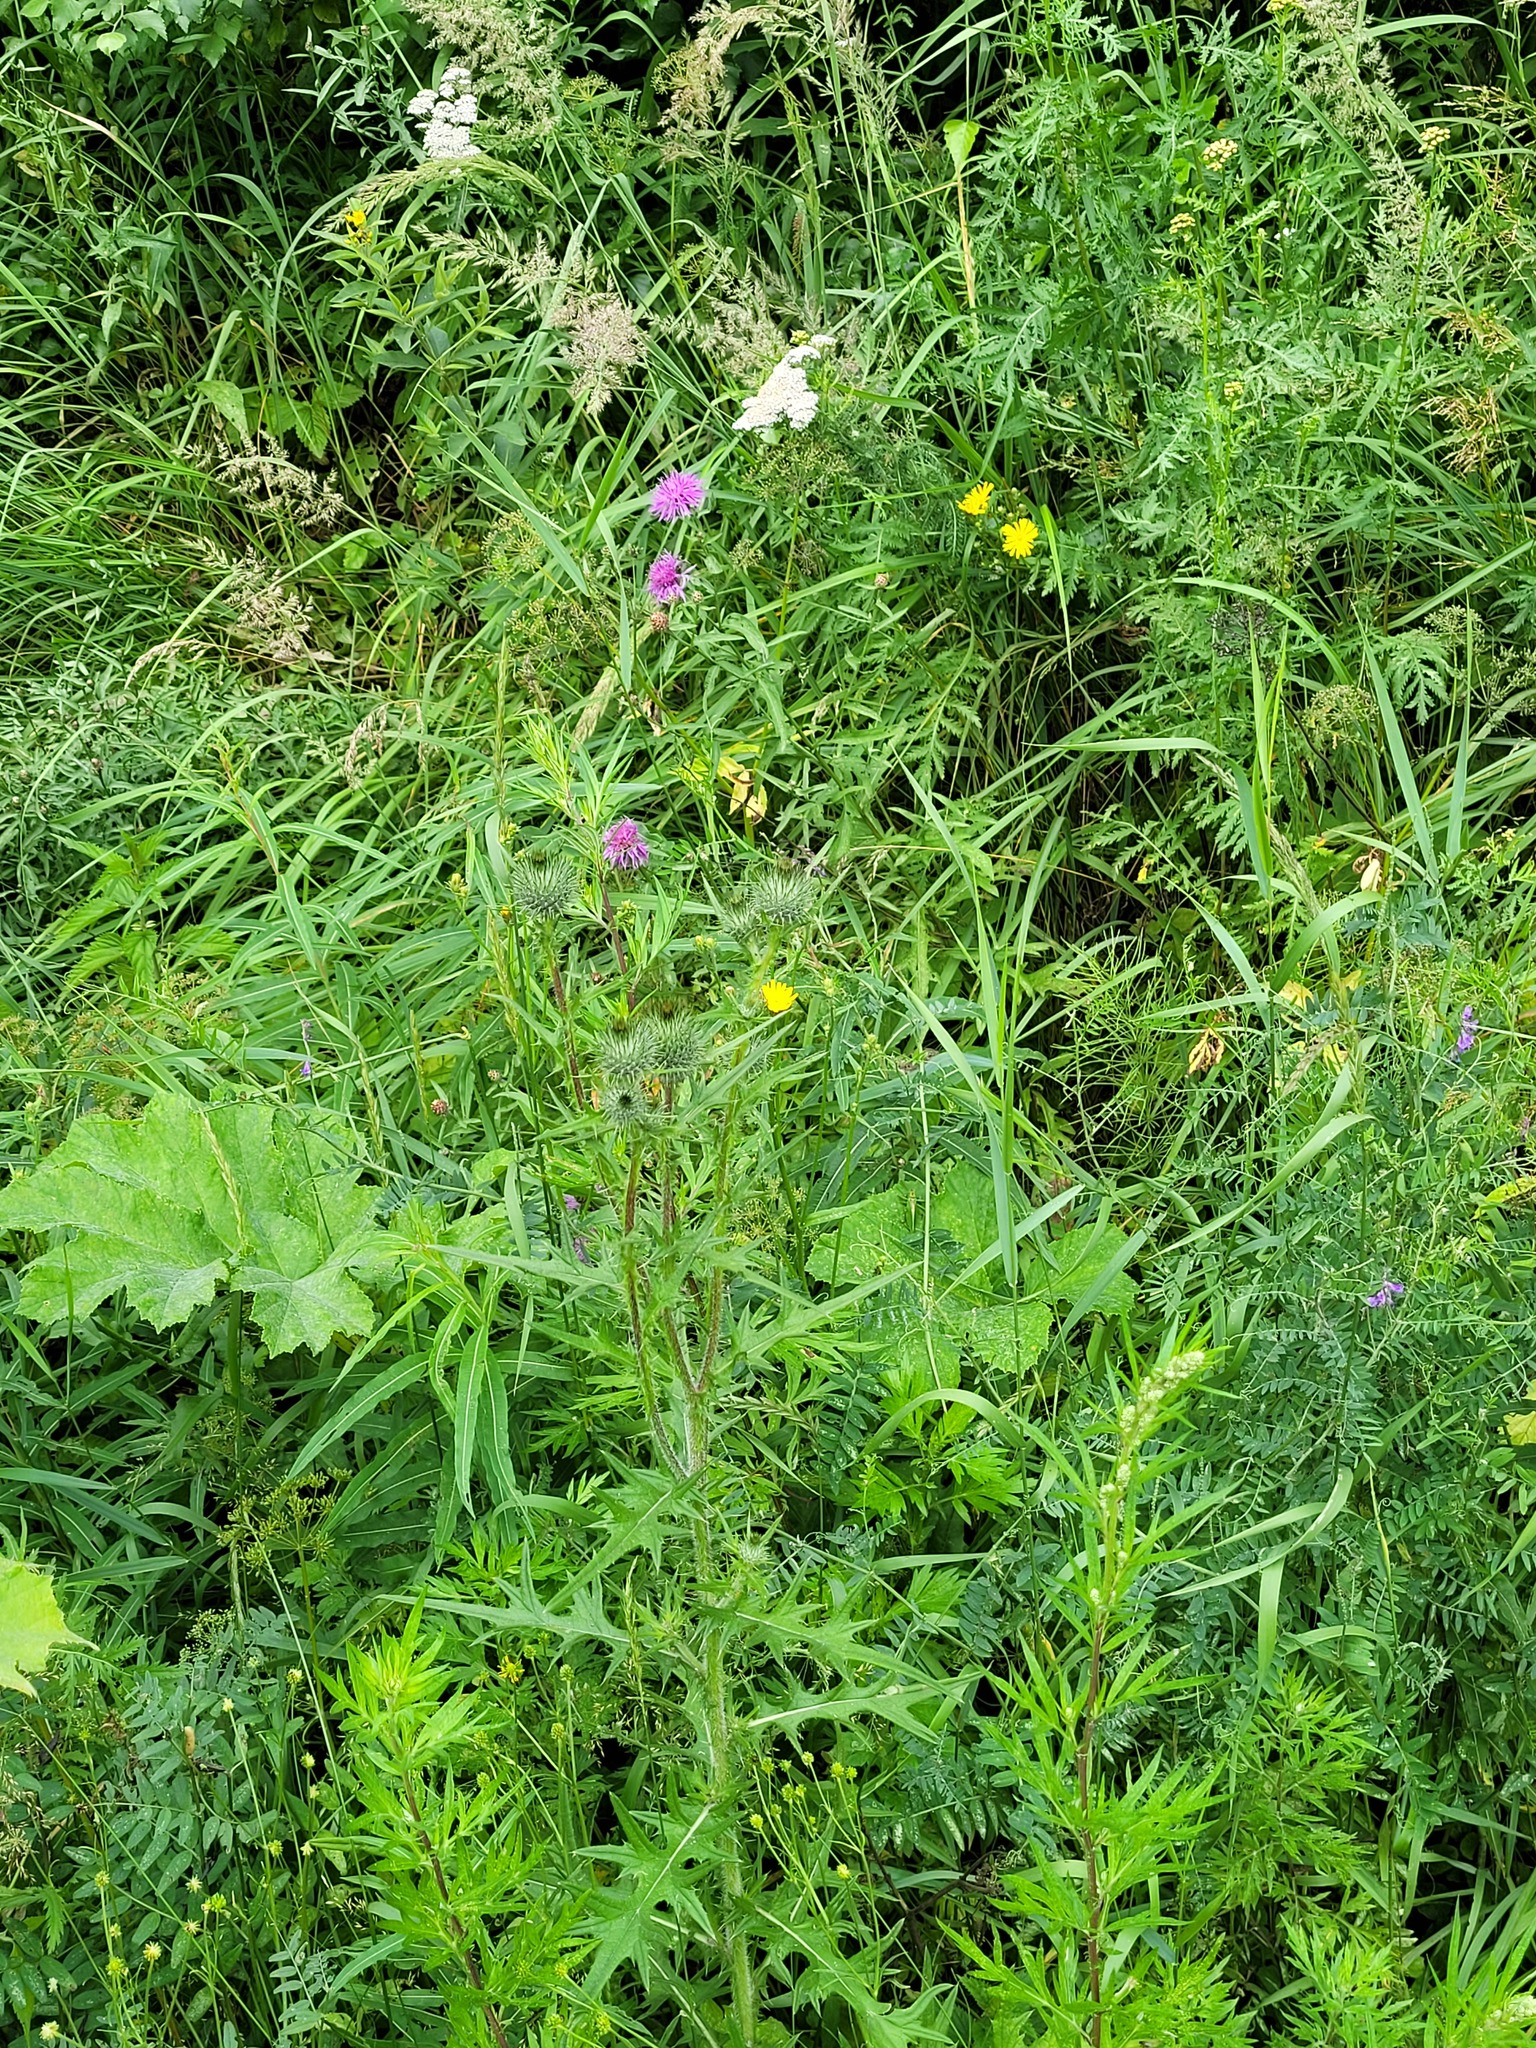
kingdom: Plantae
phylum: Tracheophyta
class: Magnoliopsida
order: Asterales
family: Asteraceae
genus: Cirsium
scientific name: Cirsium vulgare
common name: Bull thistle
